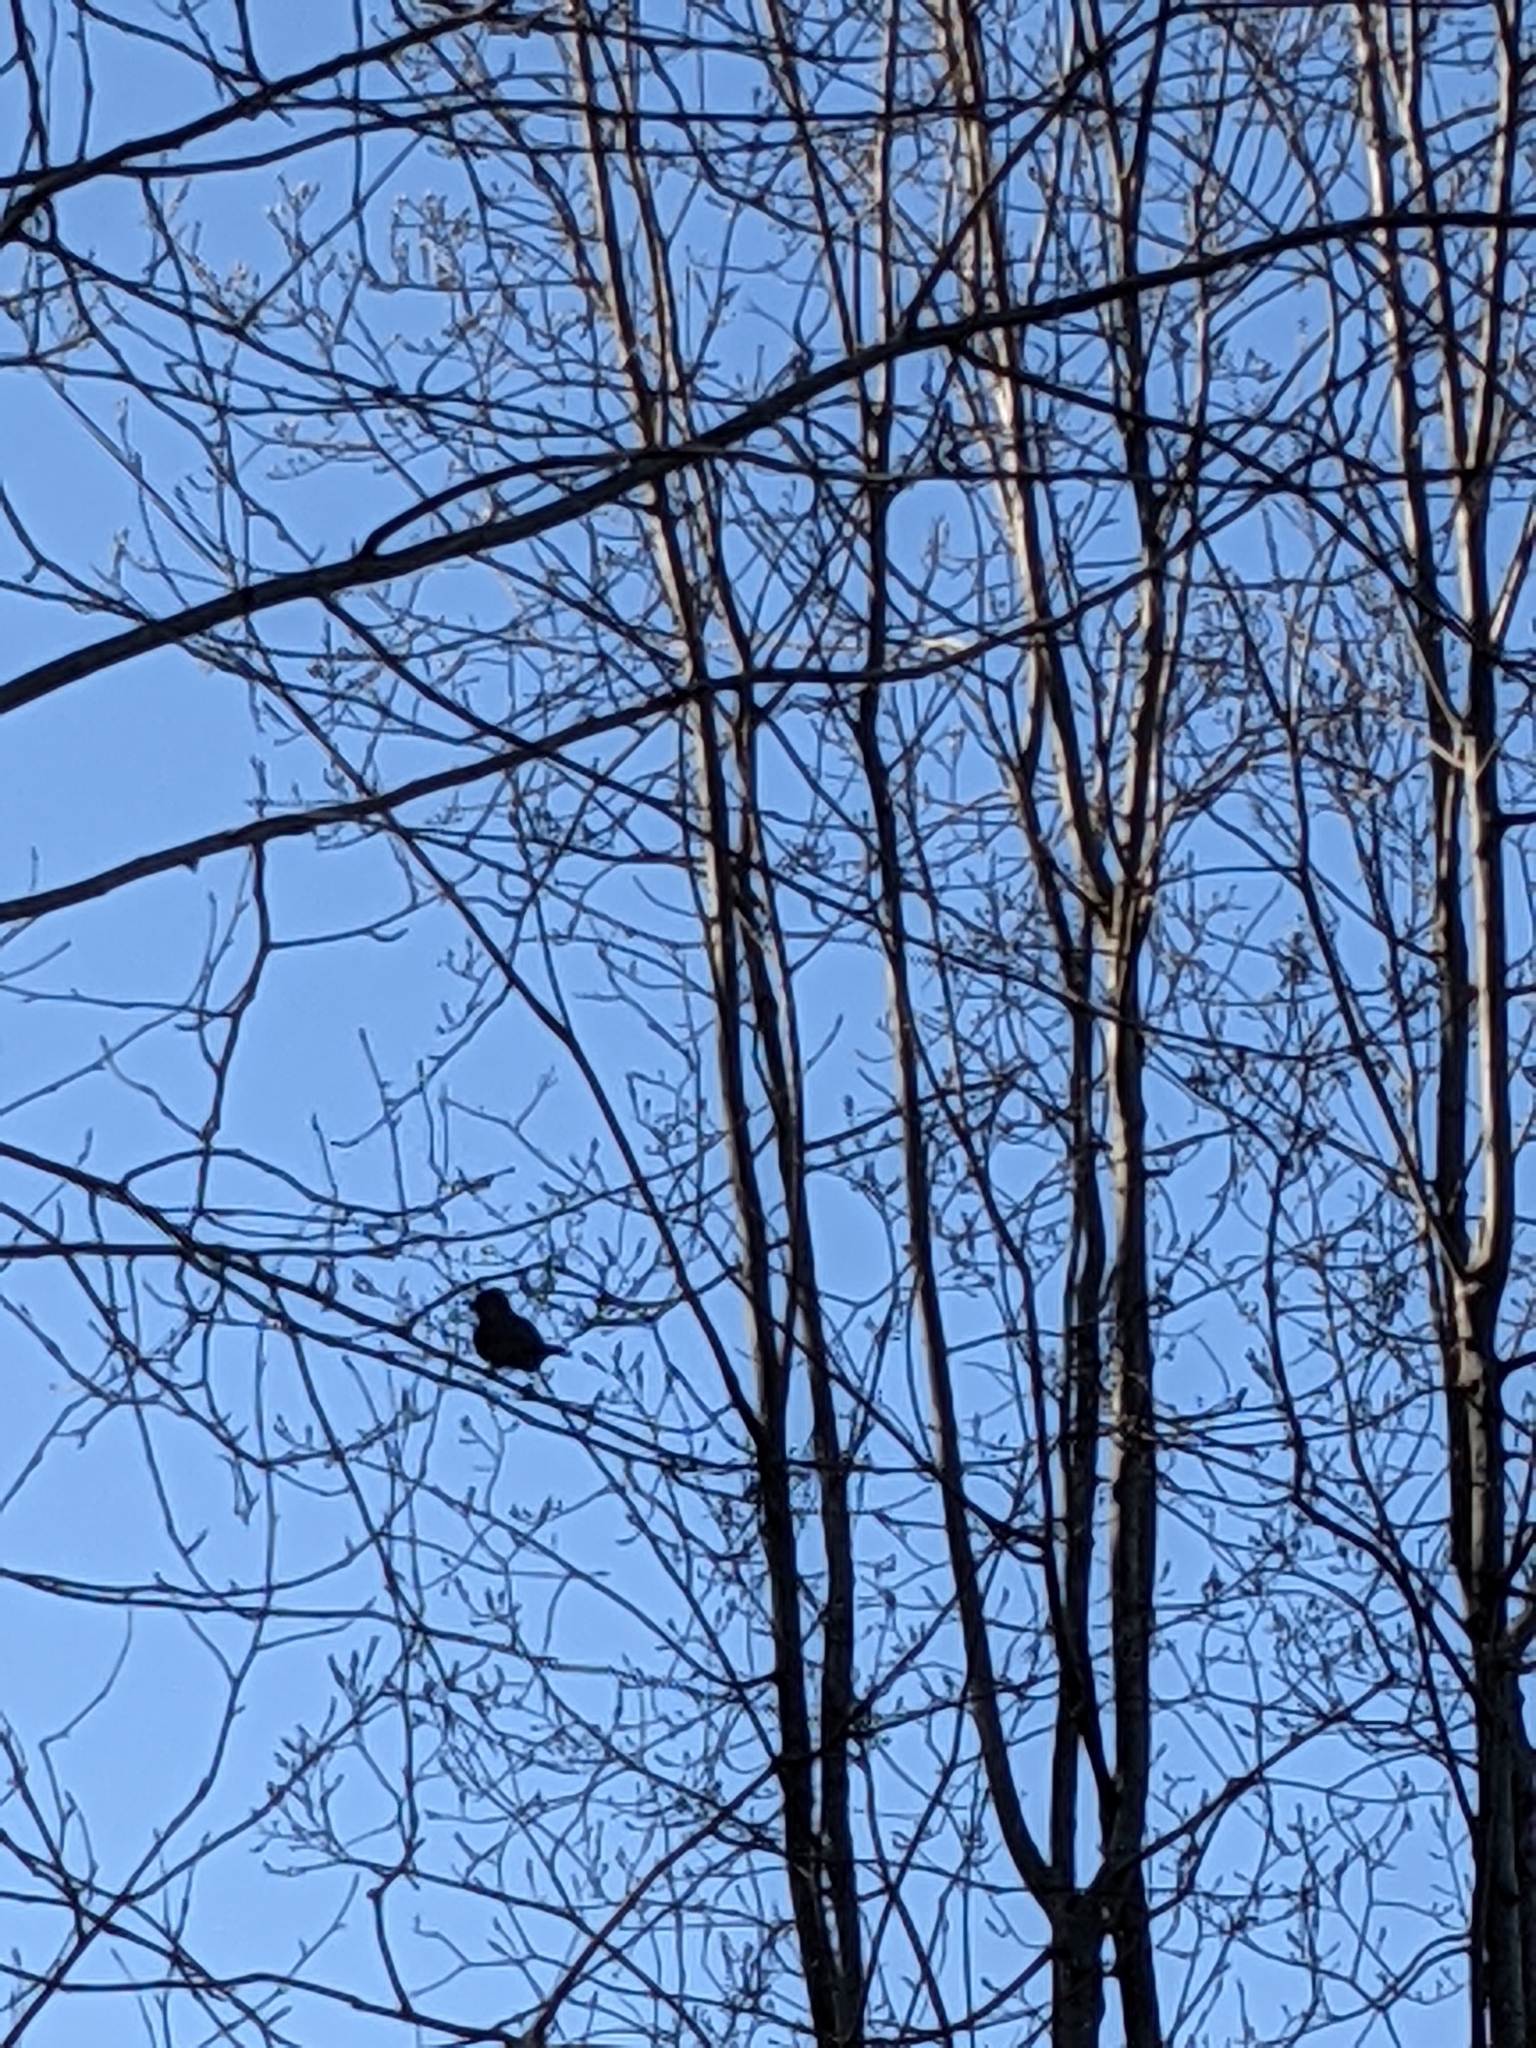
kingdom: Animalia
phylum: Chordata
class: Aves
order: Piciformes
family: Picidae
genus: Colaptes
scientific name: Colaptes auratus
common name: Northern flicker
